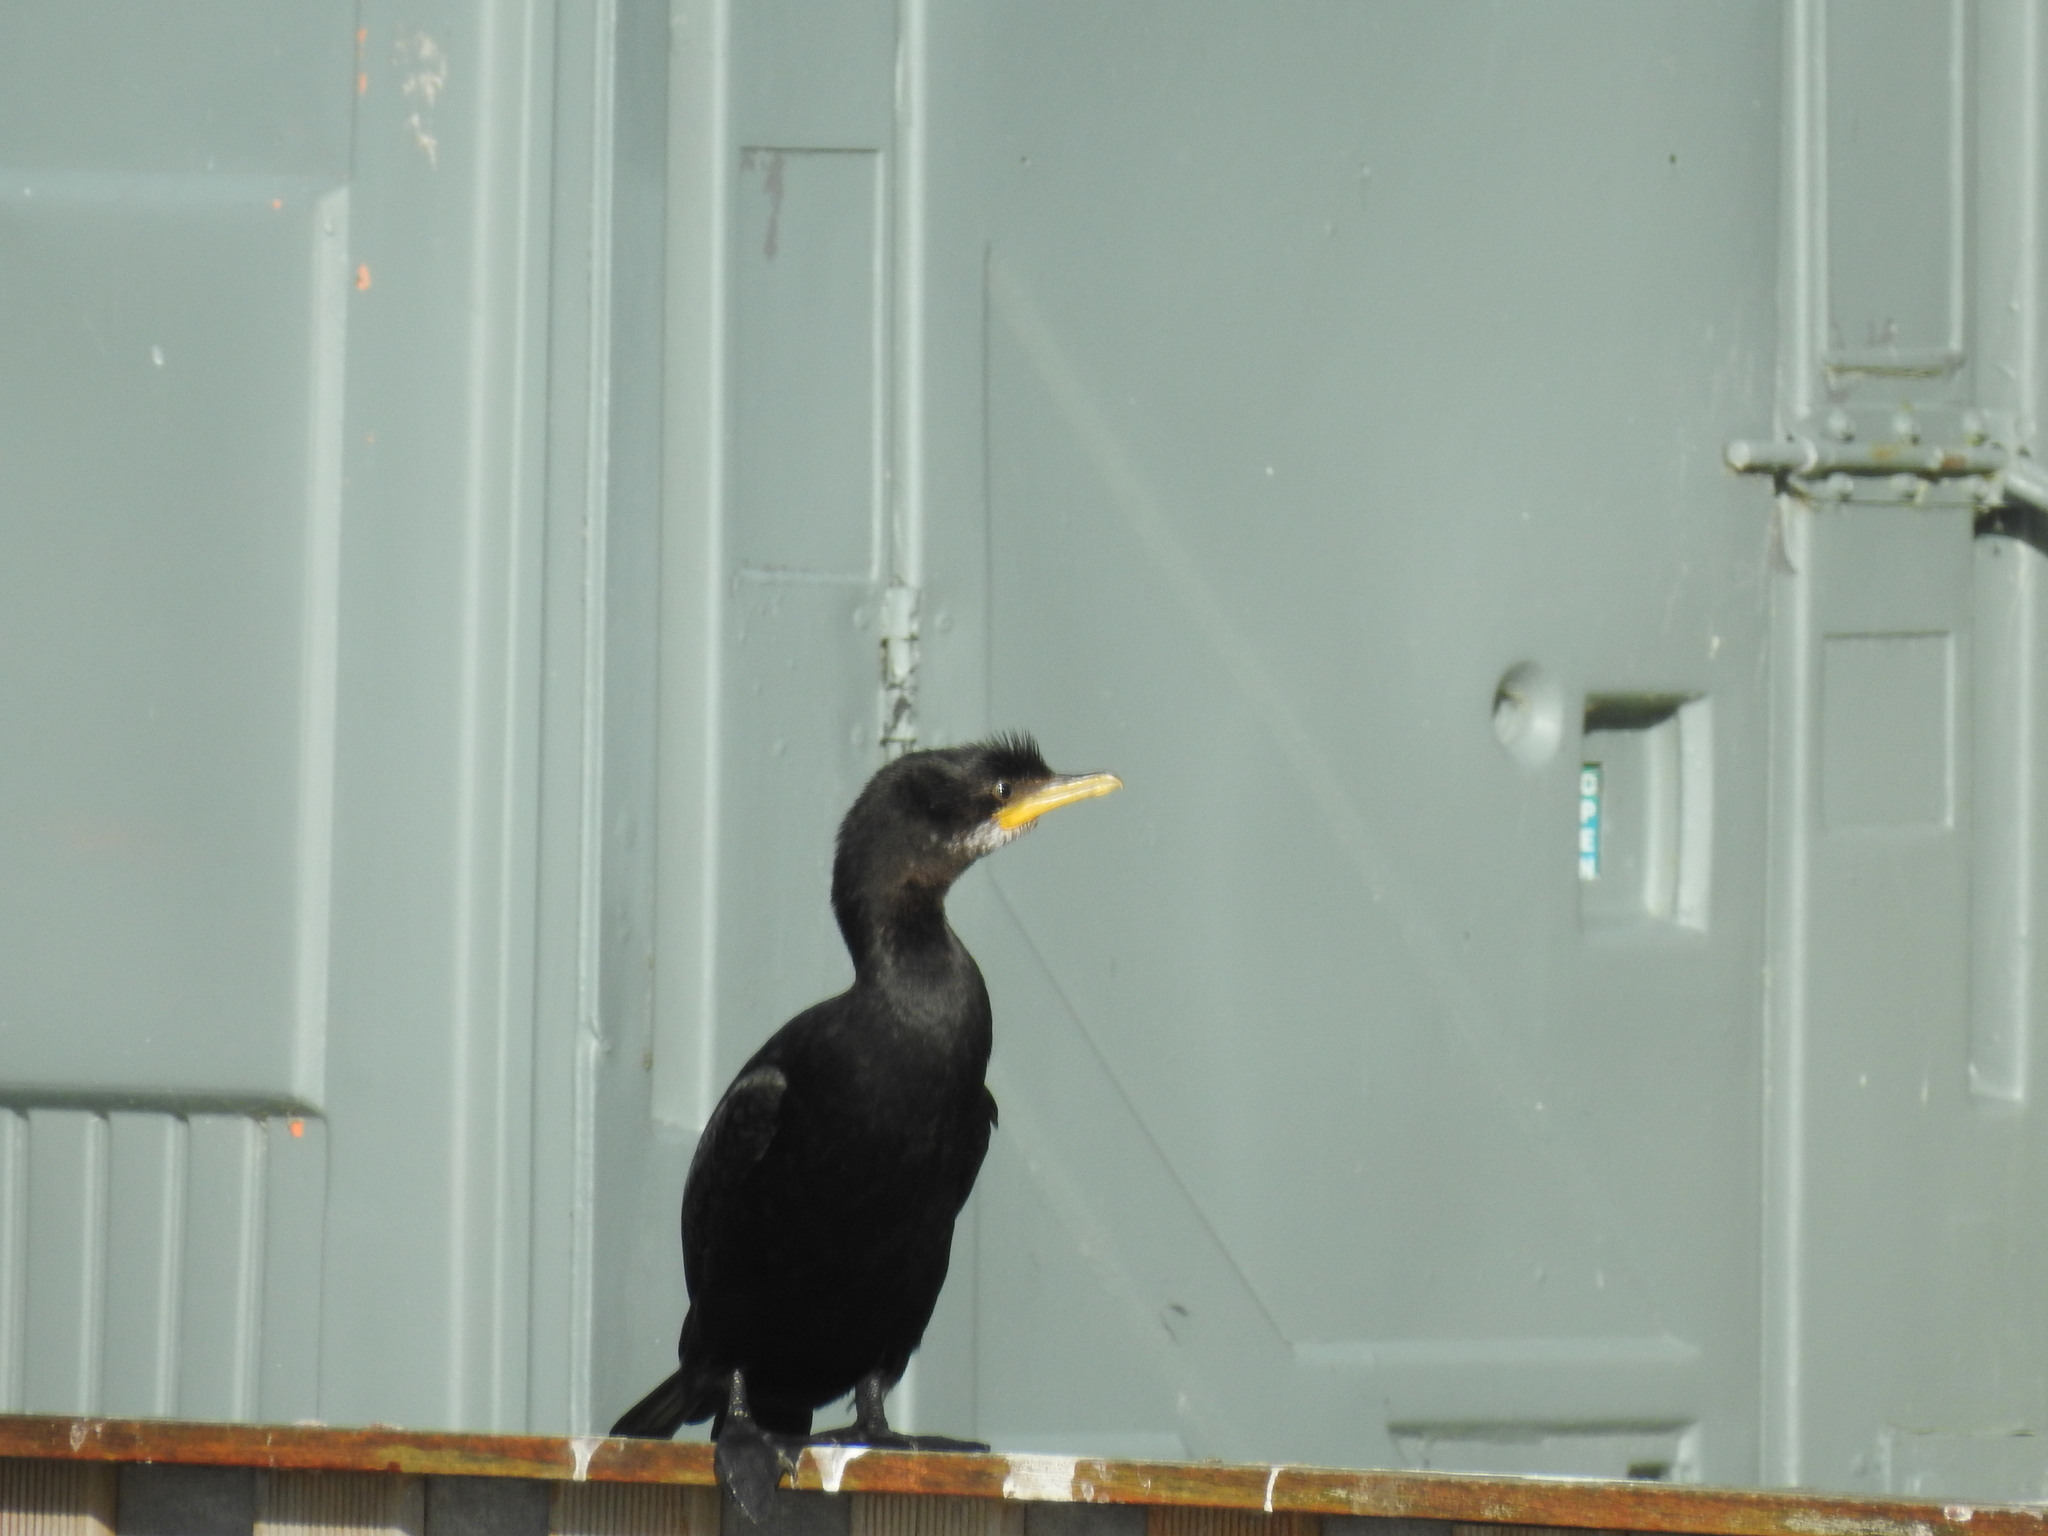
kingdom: Animalia
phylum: Chordata
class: Aves
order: Suliformes
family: Phalacrocoracidae
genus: Microcarbo
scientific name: Microcarbo melanoleucos
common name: Little pied cormorant
